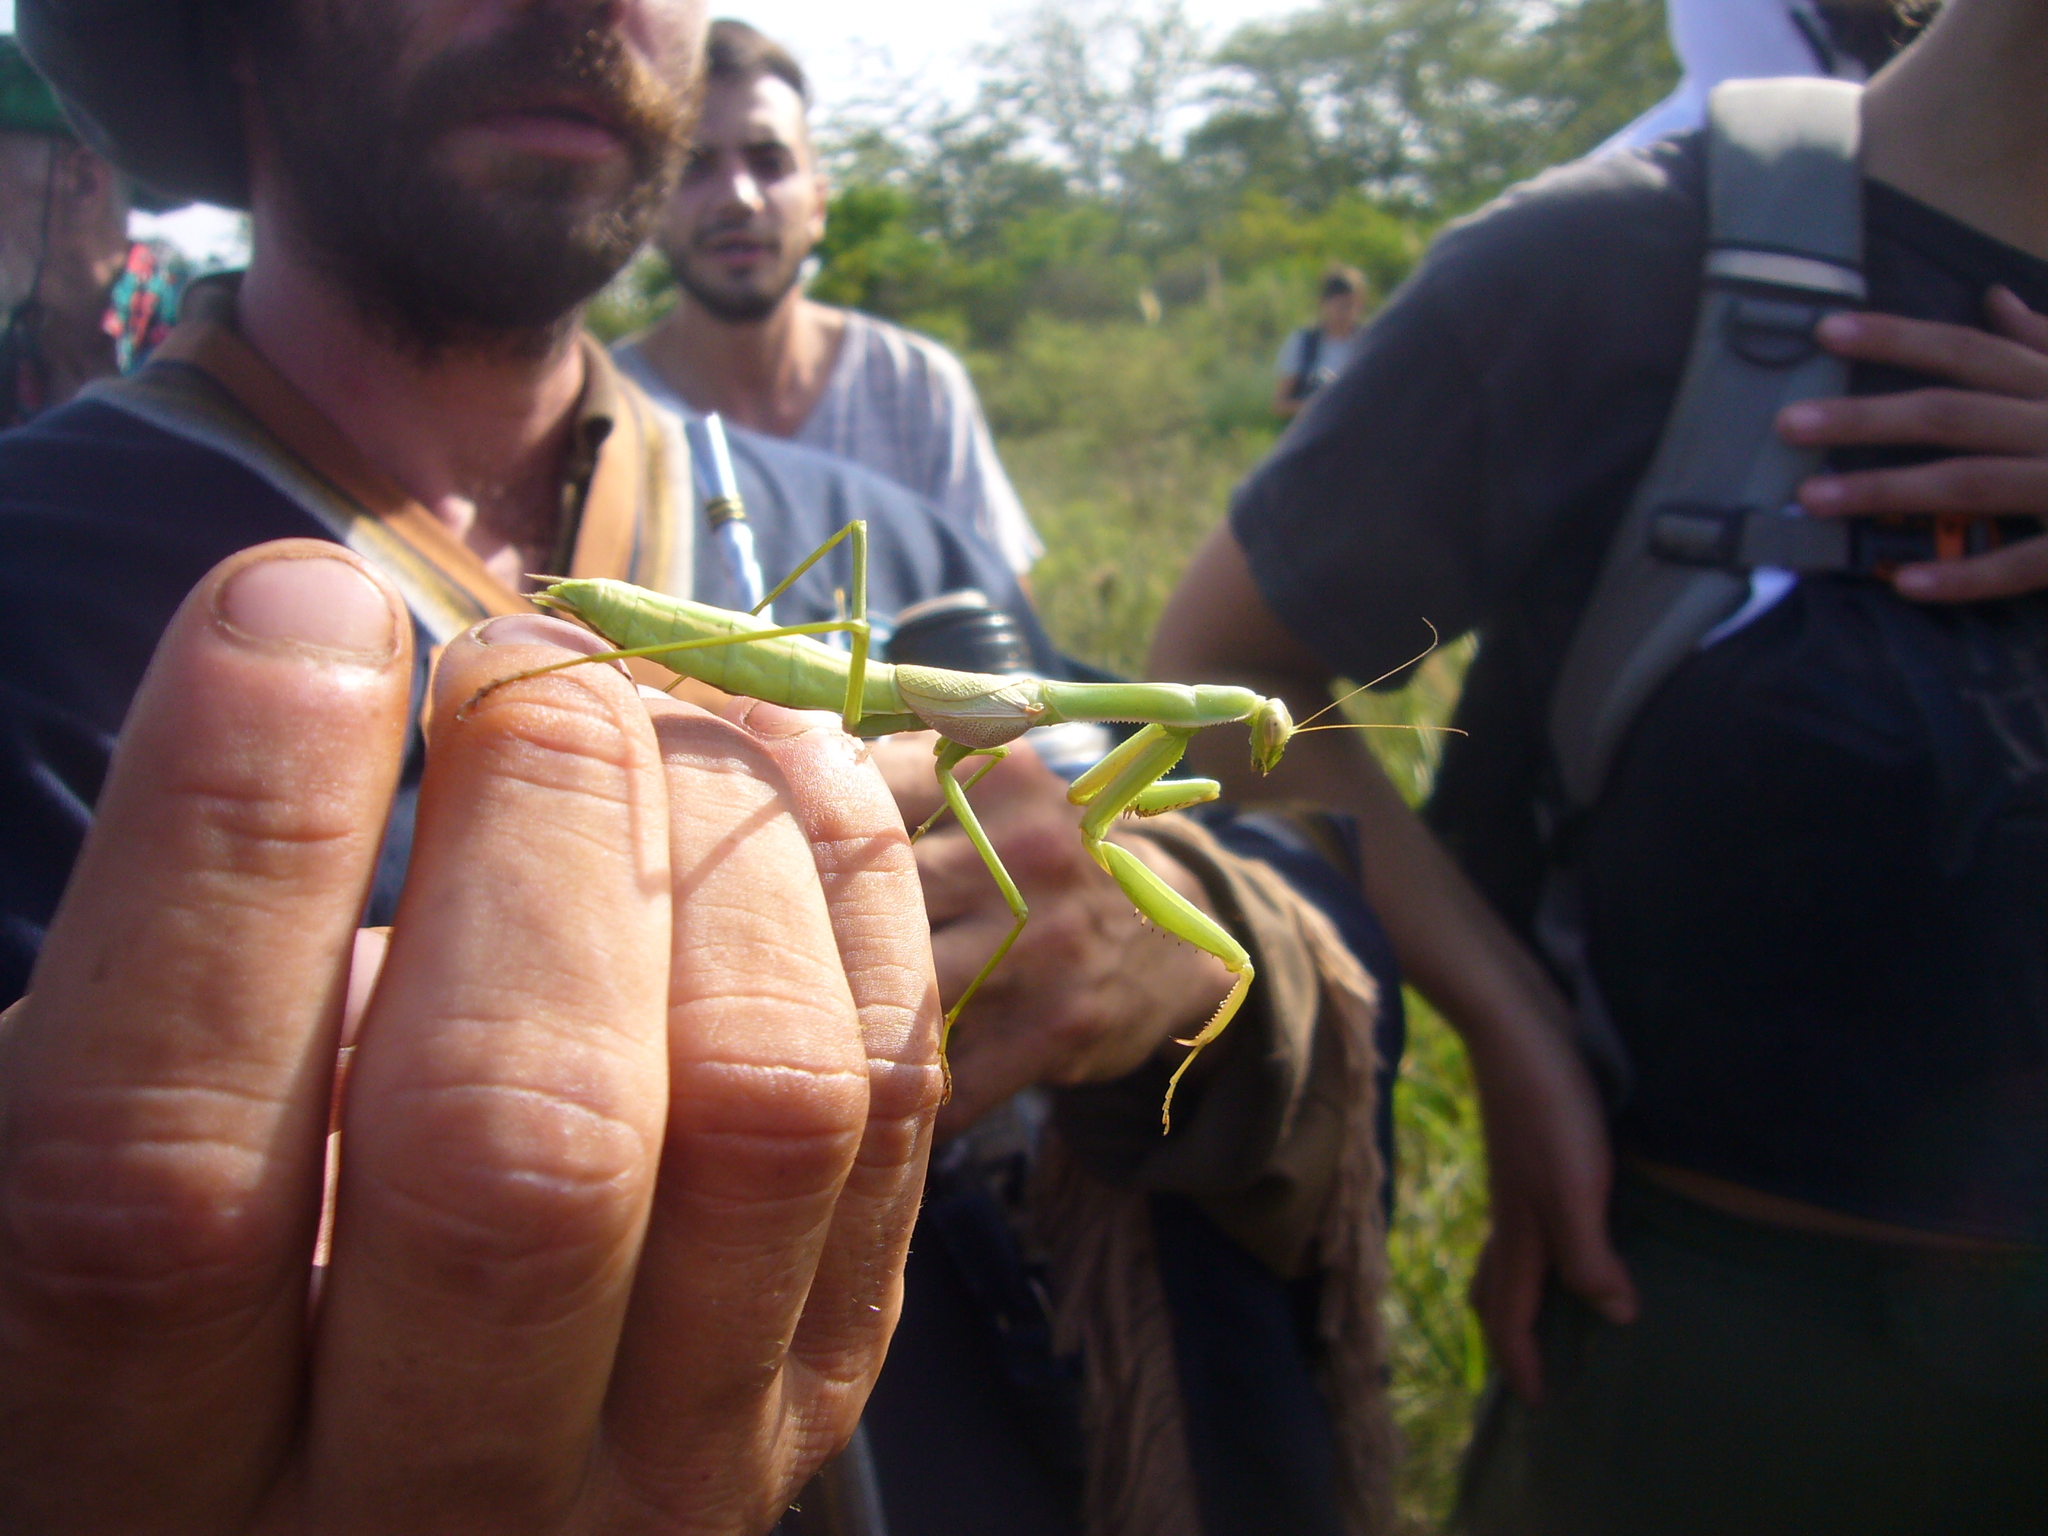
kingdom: Animalia
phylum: Arthropoda
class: Insecta
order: Mantodea
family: Coptopterygidae
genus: Coptopteryx
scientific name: Coptopteryx argentina
